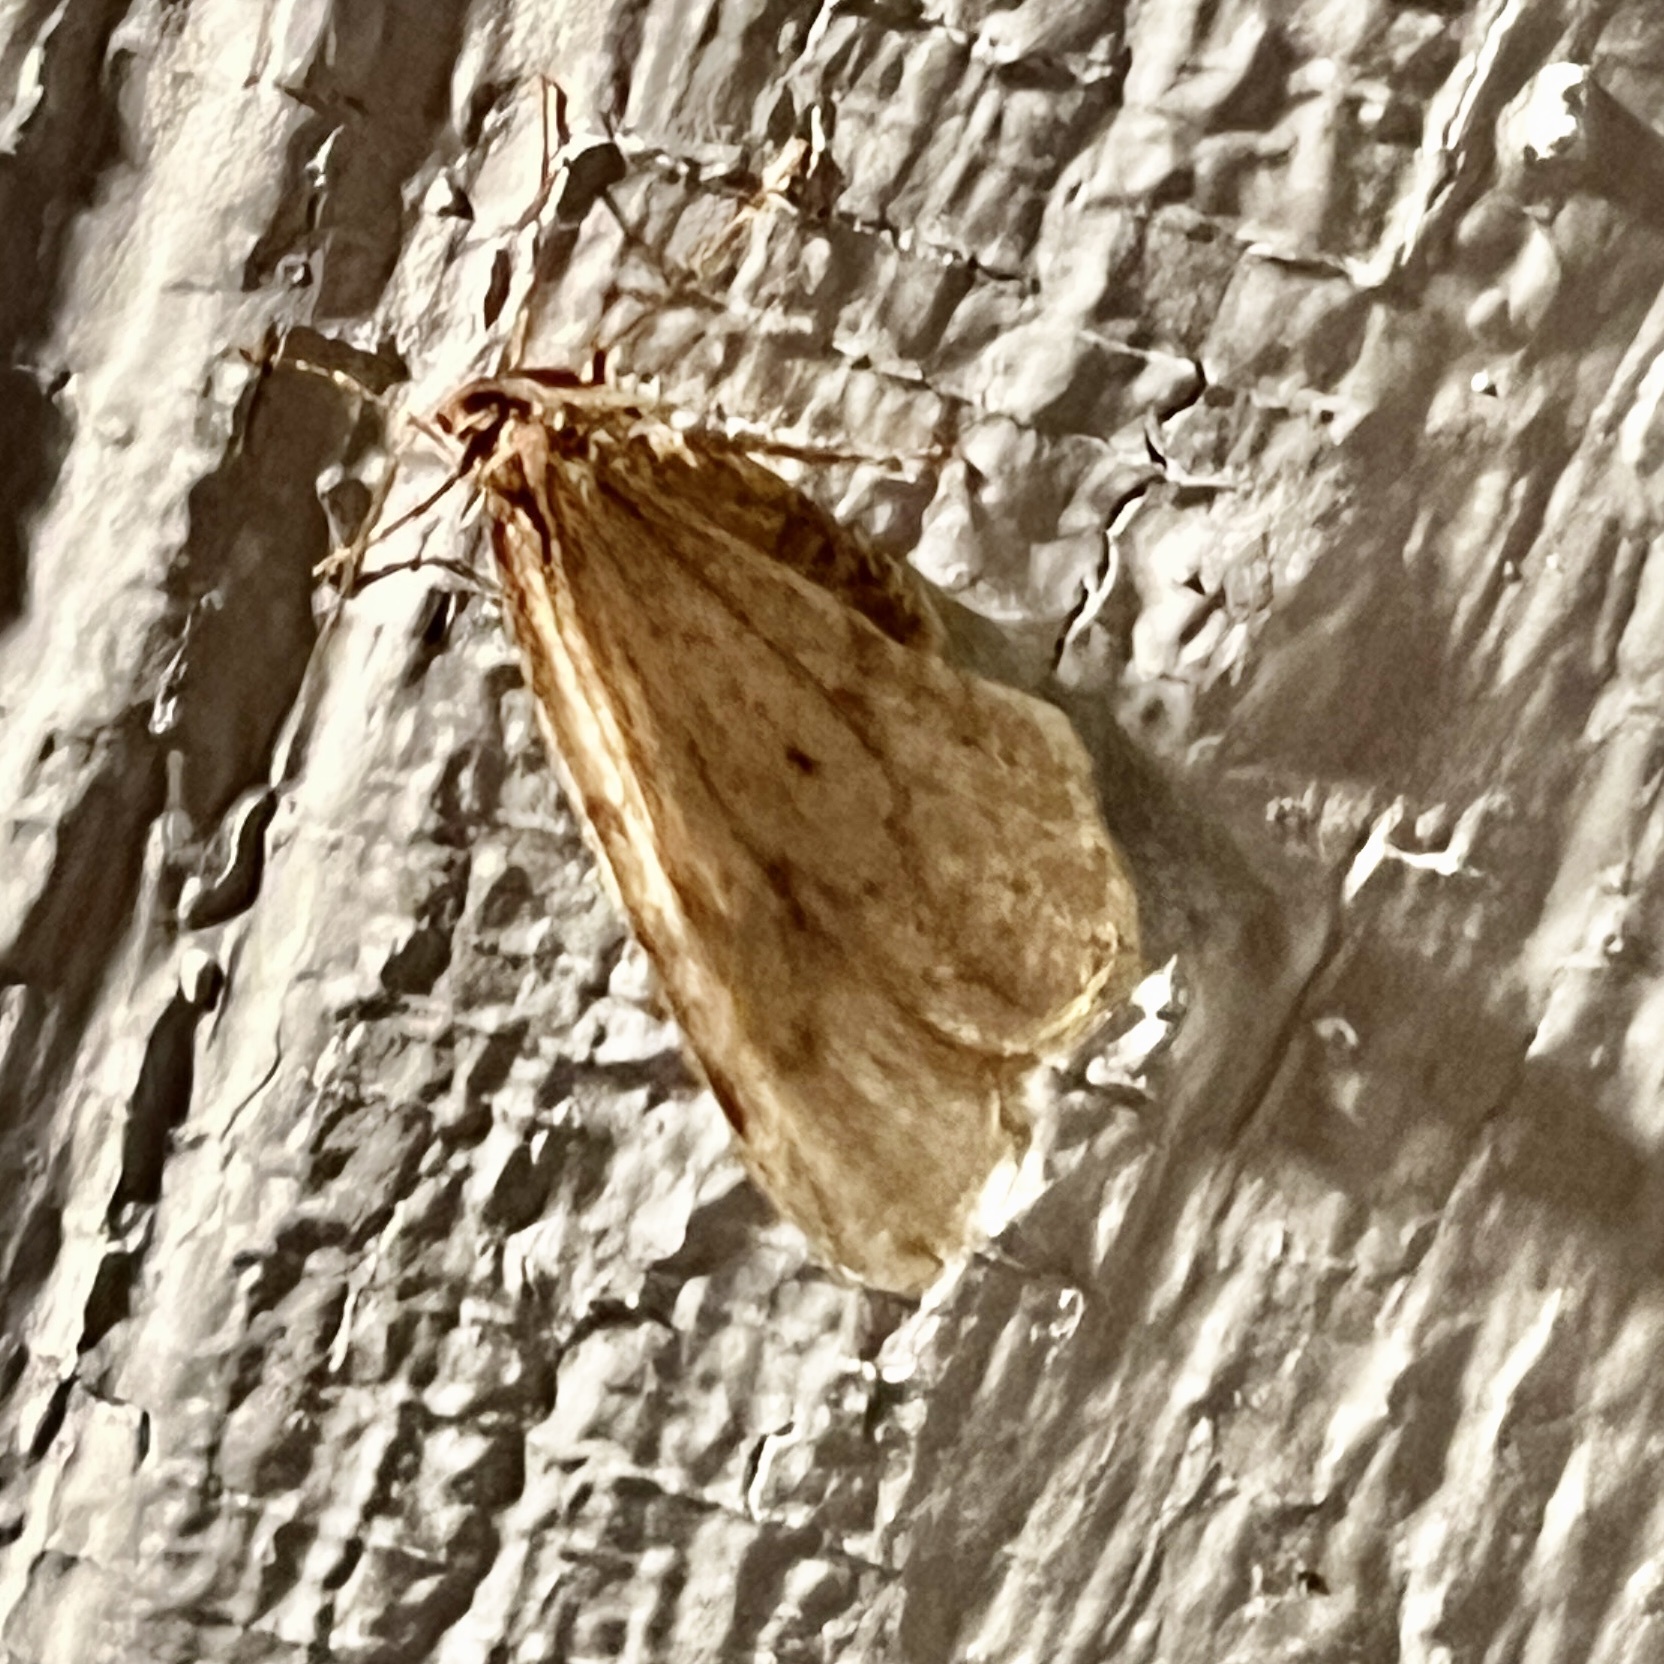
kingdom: Animalia
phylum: Arthropoda
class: Insecta
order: Lepidoptera
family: Geometridae
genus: Operophtera
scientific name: Operophtera bruceata
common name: Bruce spanworm
